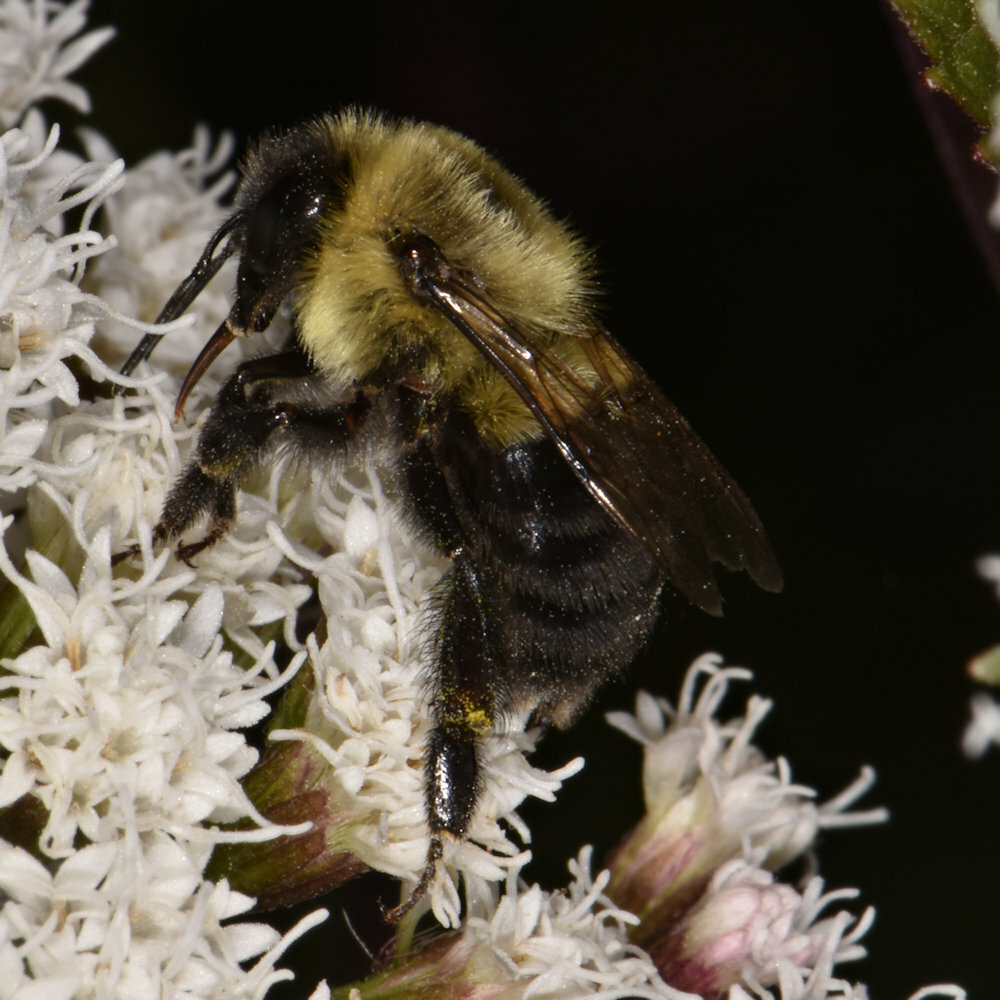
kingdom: Animalia
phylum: Arthropoda
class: Insecta
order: Hymenoptera
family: Apidae
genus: Bombus
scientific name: Bombus impatiens
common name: Common eastern bumble bee
